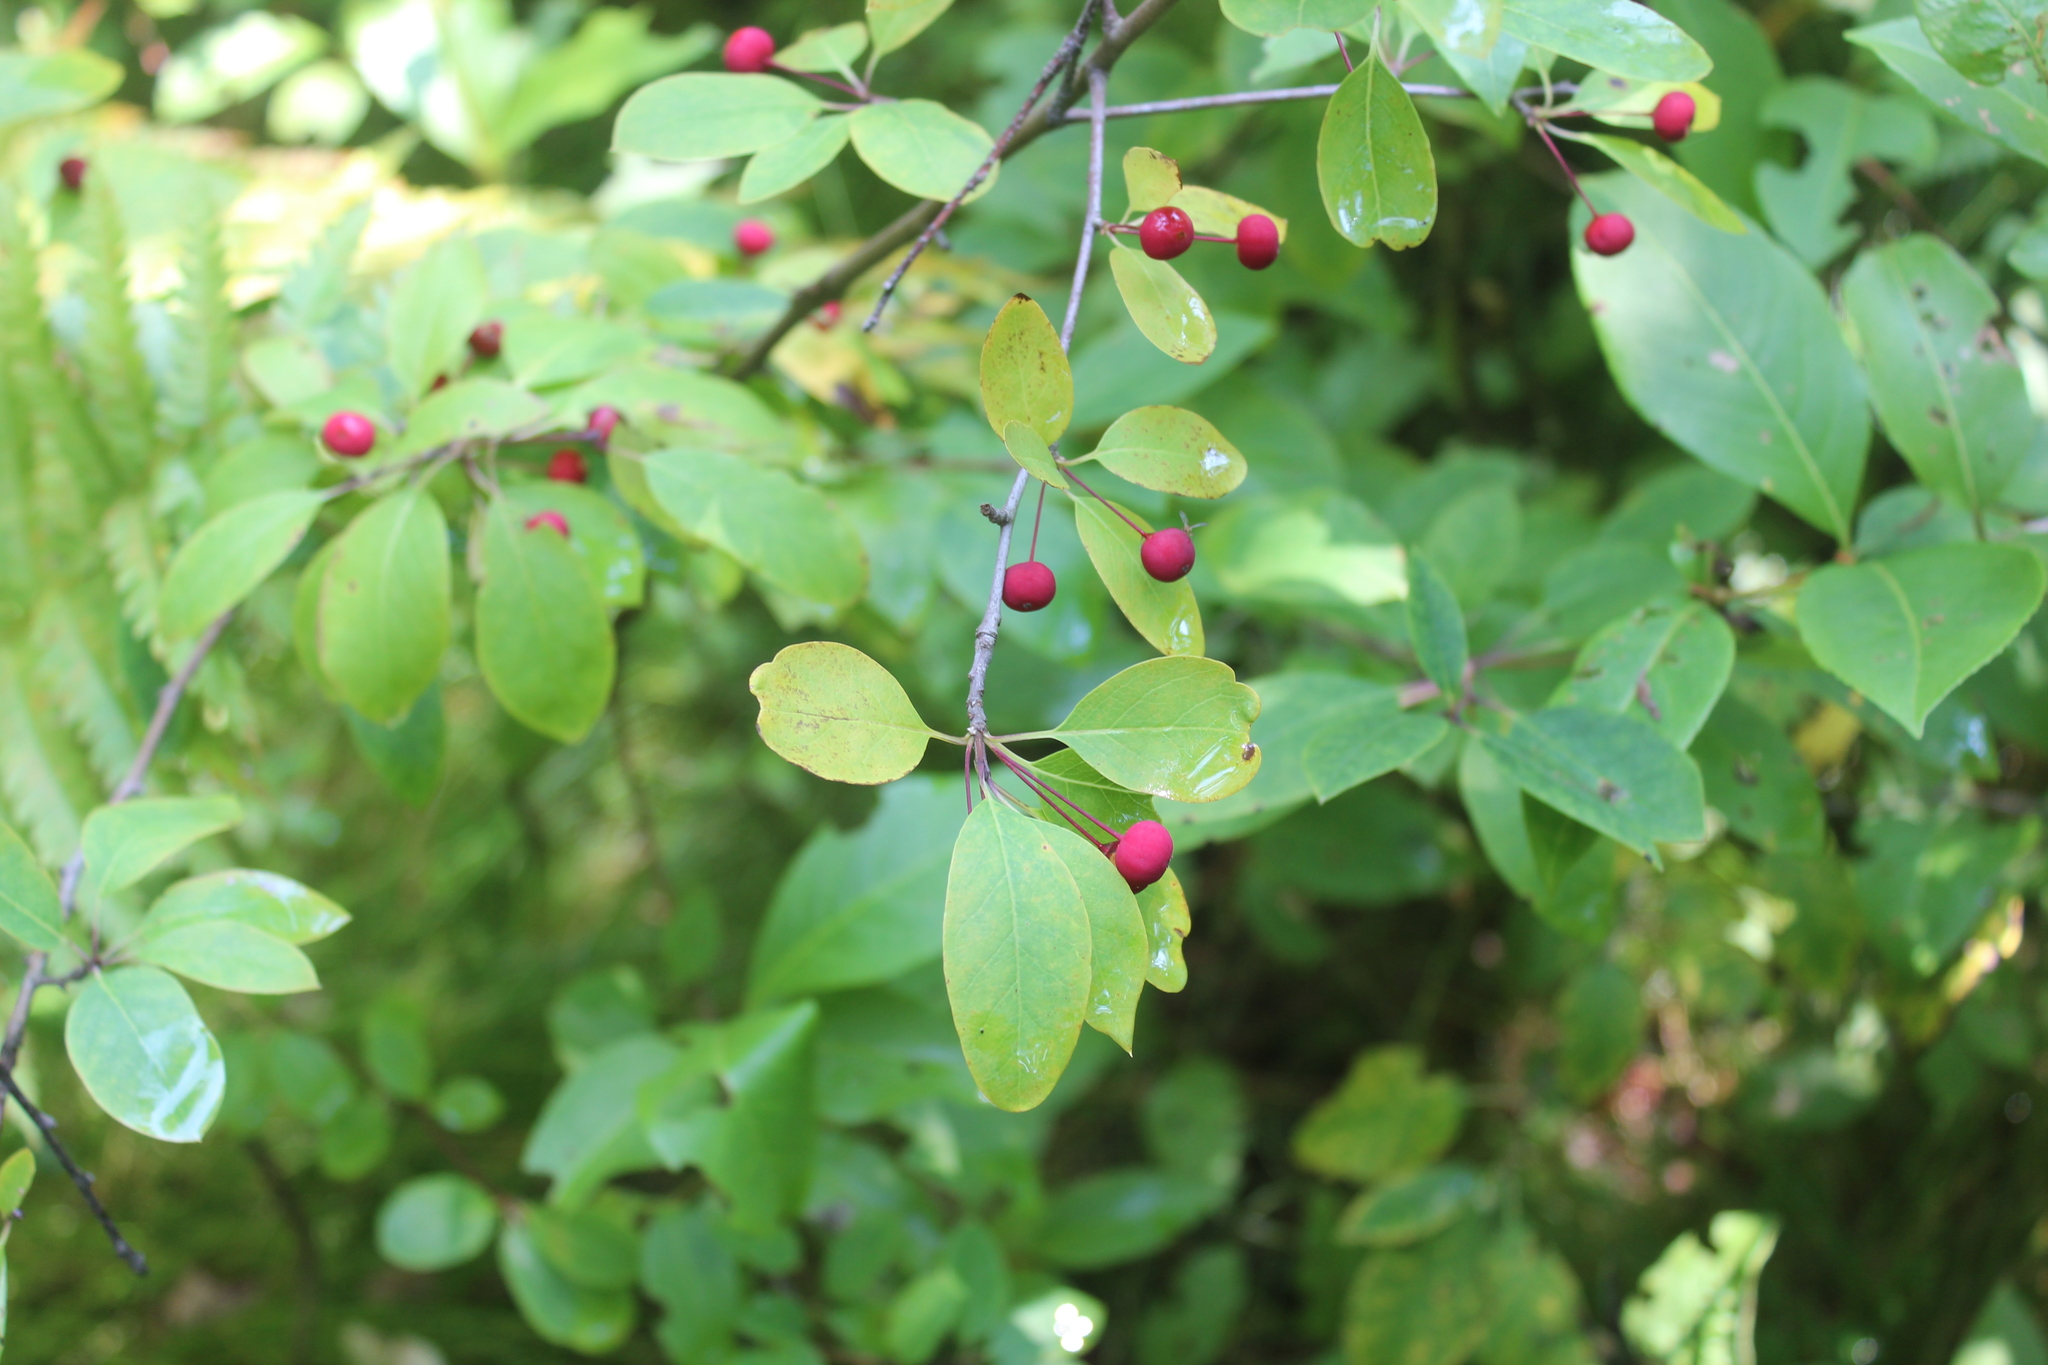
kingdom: Plantae
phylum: Tracheophyta
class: Magnoliopsida
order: Aquifoliales
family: Aquifoliaceae
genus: Ilex
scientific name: Ilex mucronata
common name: Catberry
